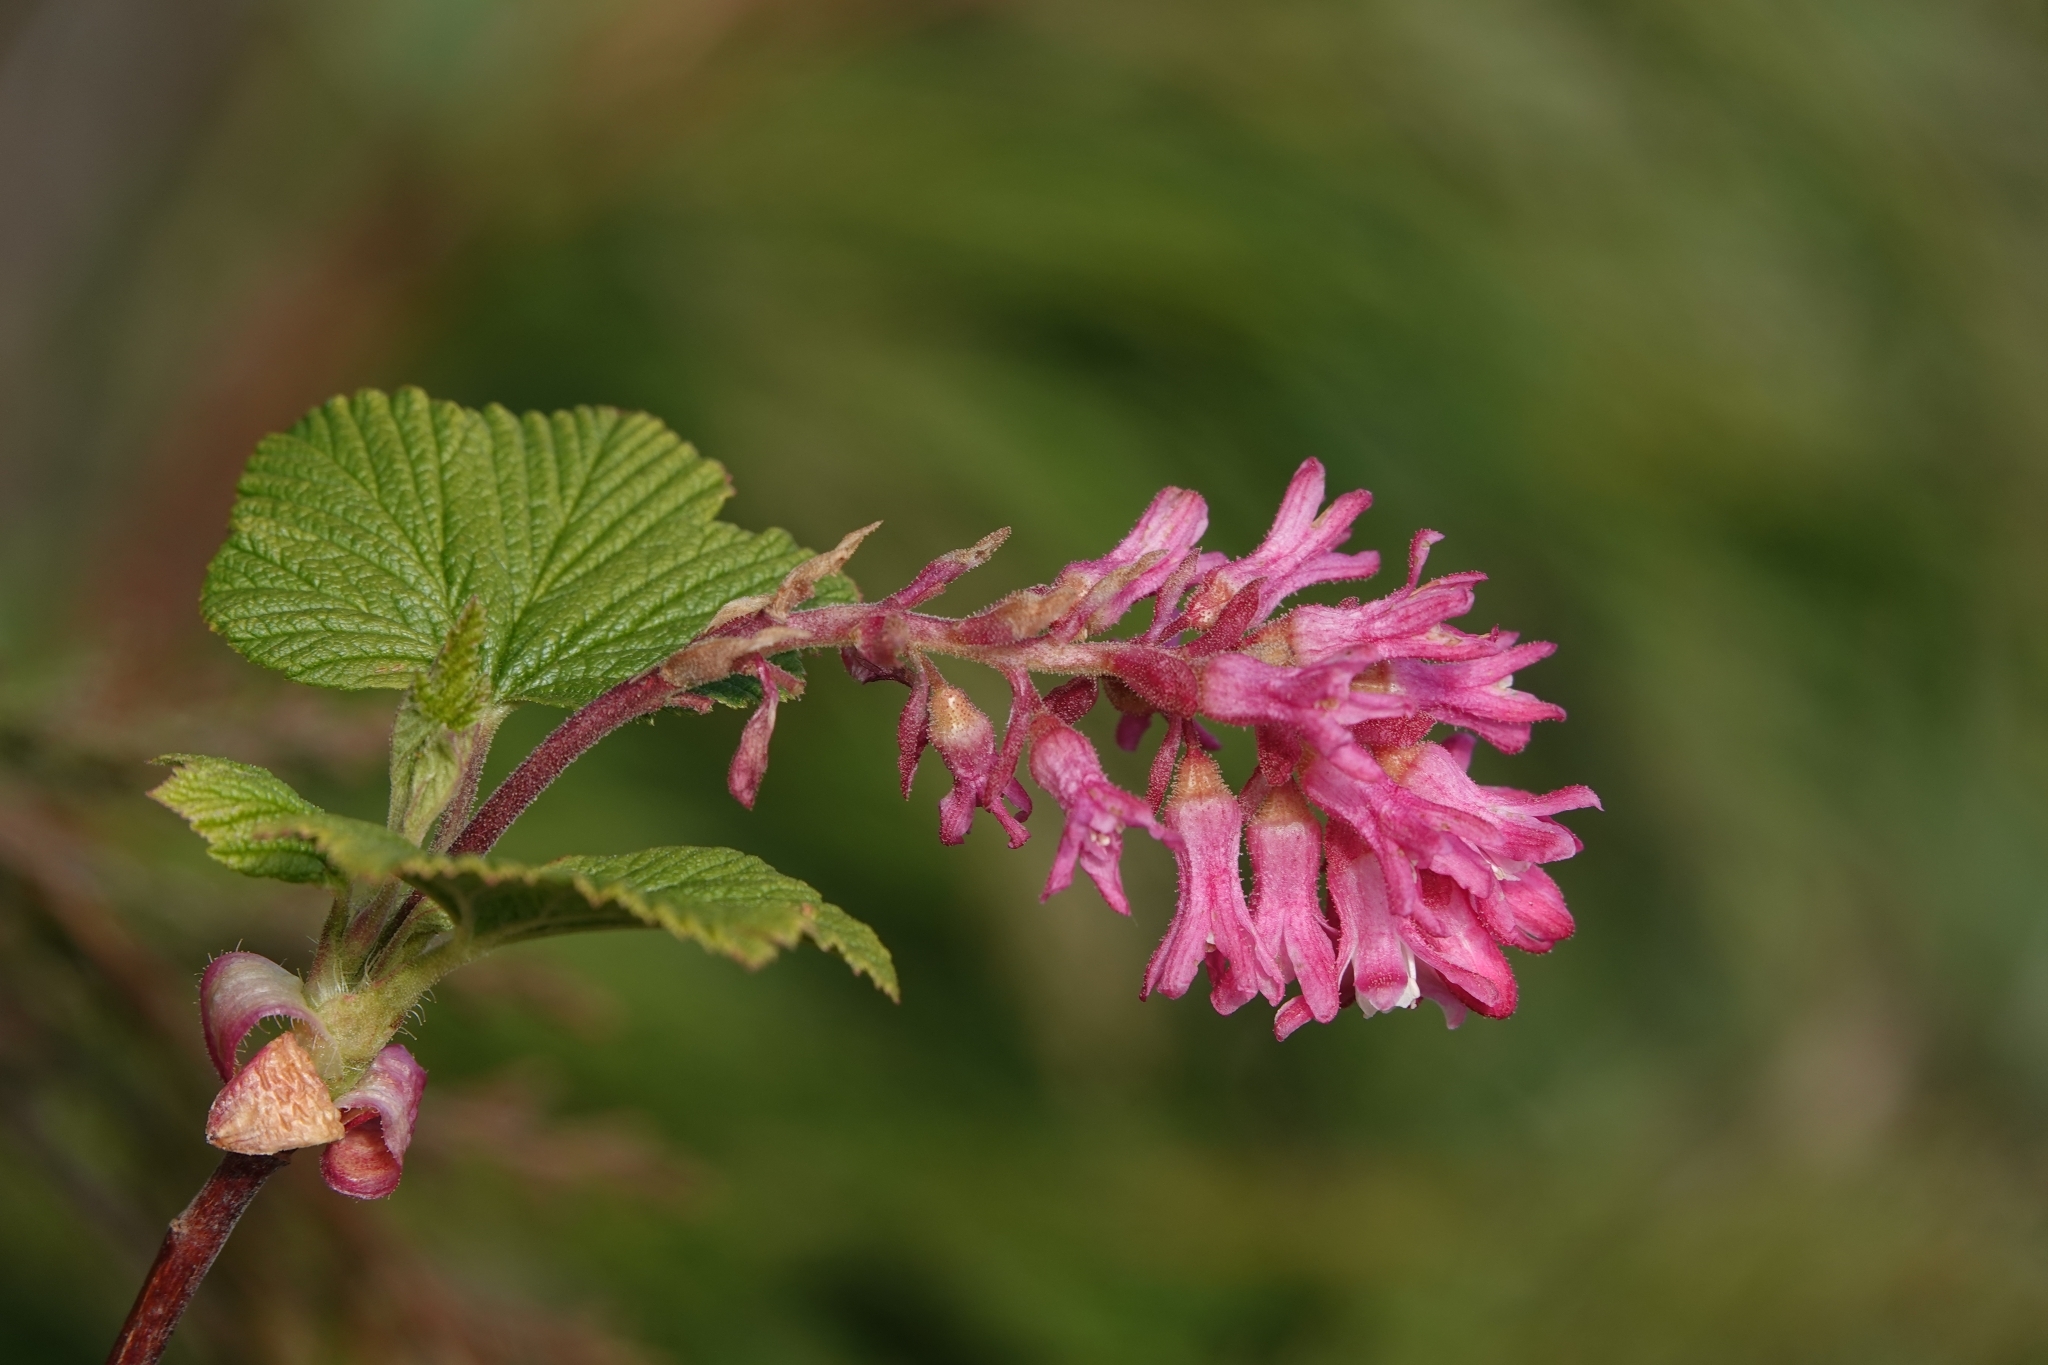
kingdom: Plantae
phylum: Tracheophyta
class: Magnoliopsida
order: Saxifragales
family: Grossulariaceae
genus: Ribes
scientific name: Ribes sanguineum
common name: Flowering currant
